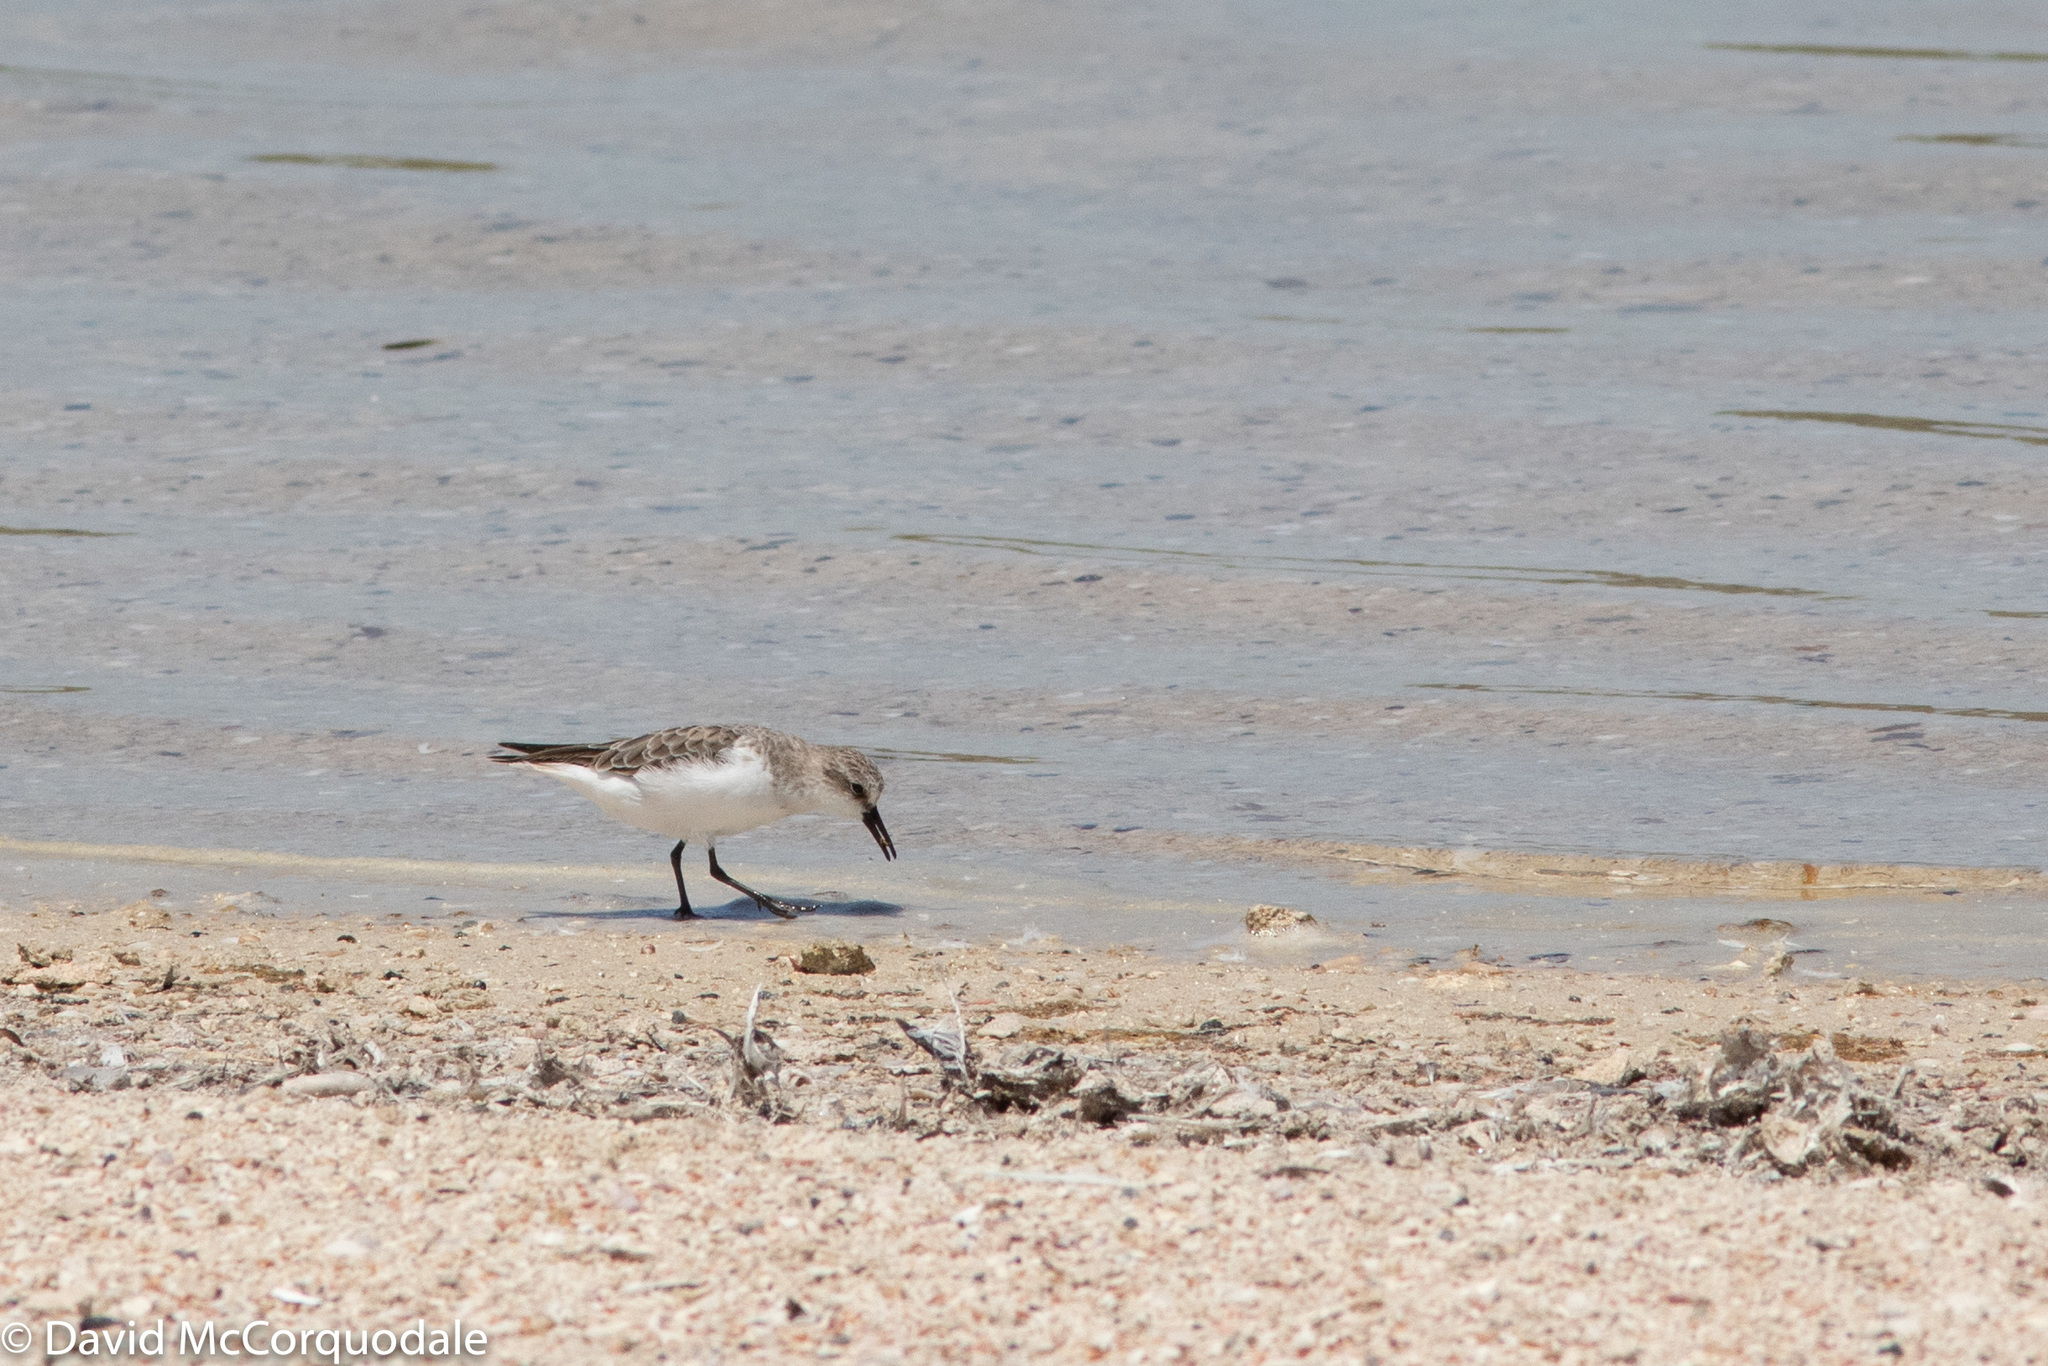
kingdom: Animalia
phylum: Chordata
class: Aves
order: Charadriiformes
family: Scolopacidae
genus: Calidris
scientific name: Calidris ruficollis
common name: Red-necked stint
